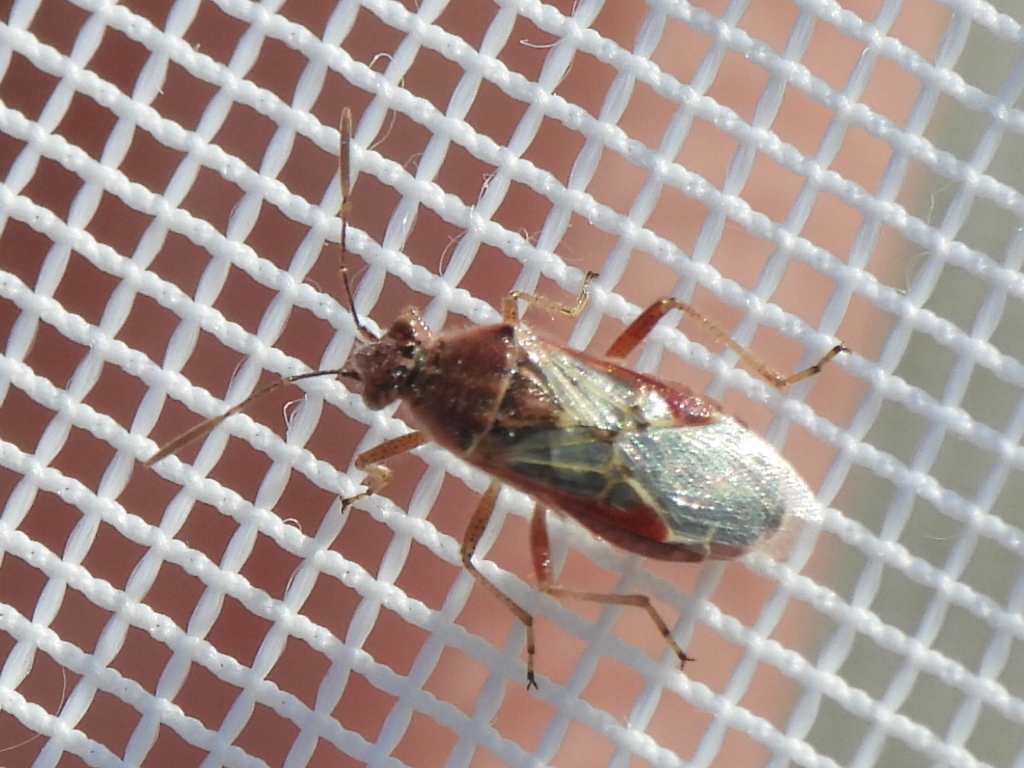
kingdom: Animalia
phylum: Arthropoda
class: Insecta
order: Hemiptera
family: Rhopalidae
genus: Liorhyssus
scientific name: Liorhyssus hyalinus
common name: Scentless plant bug
